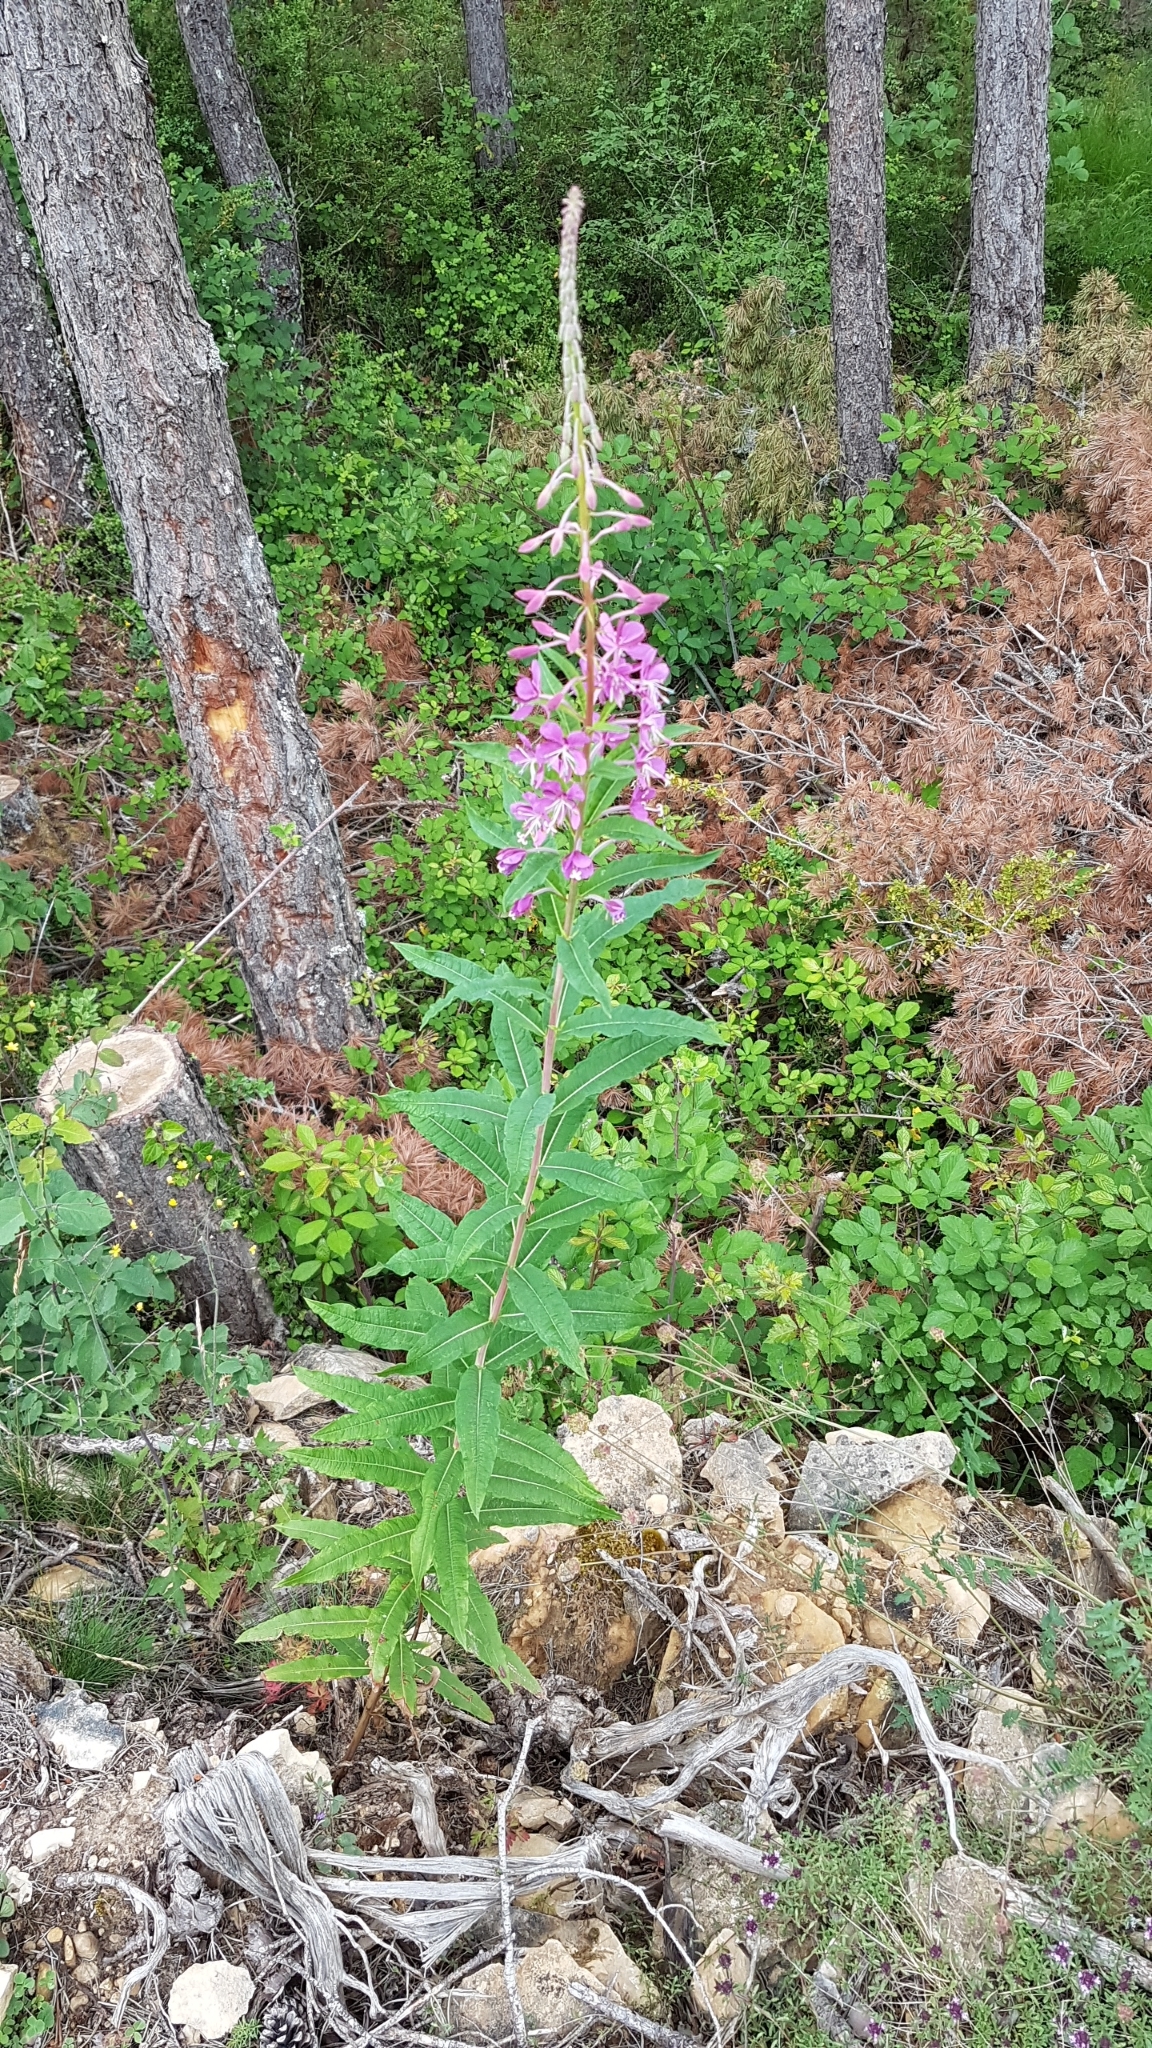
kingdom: Plantae
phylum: Tracheophyta
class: Magnoliopsida
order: Myrtales
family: Onagraceae
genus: Chamaenerion
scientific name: Chamaenerion angustifolium
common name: Fireweed
